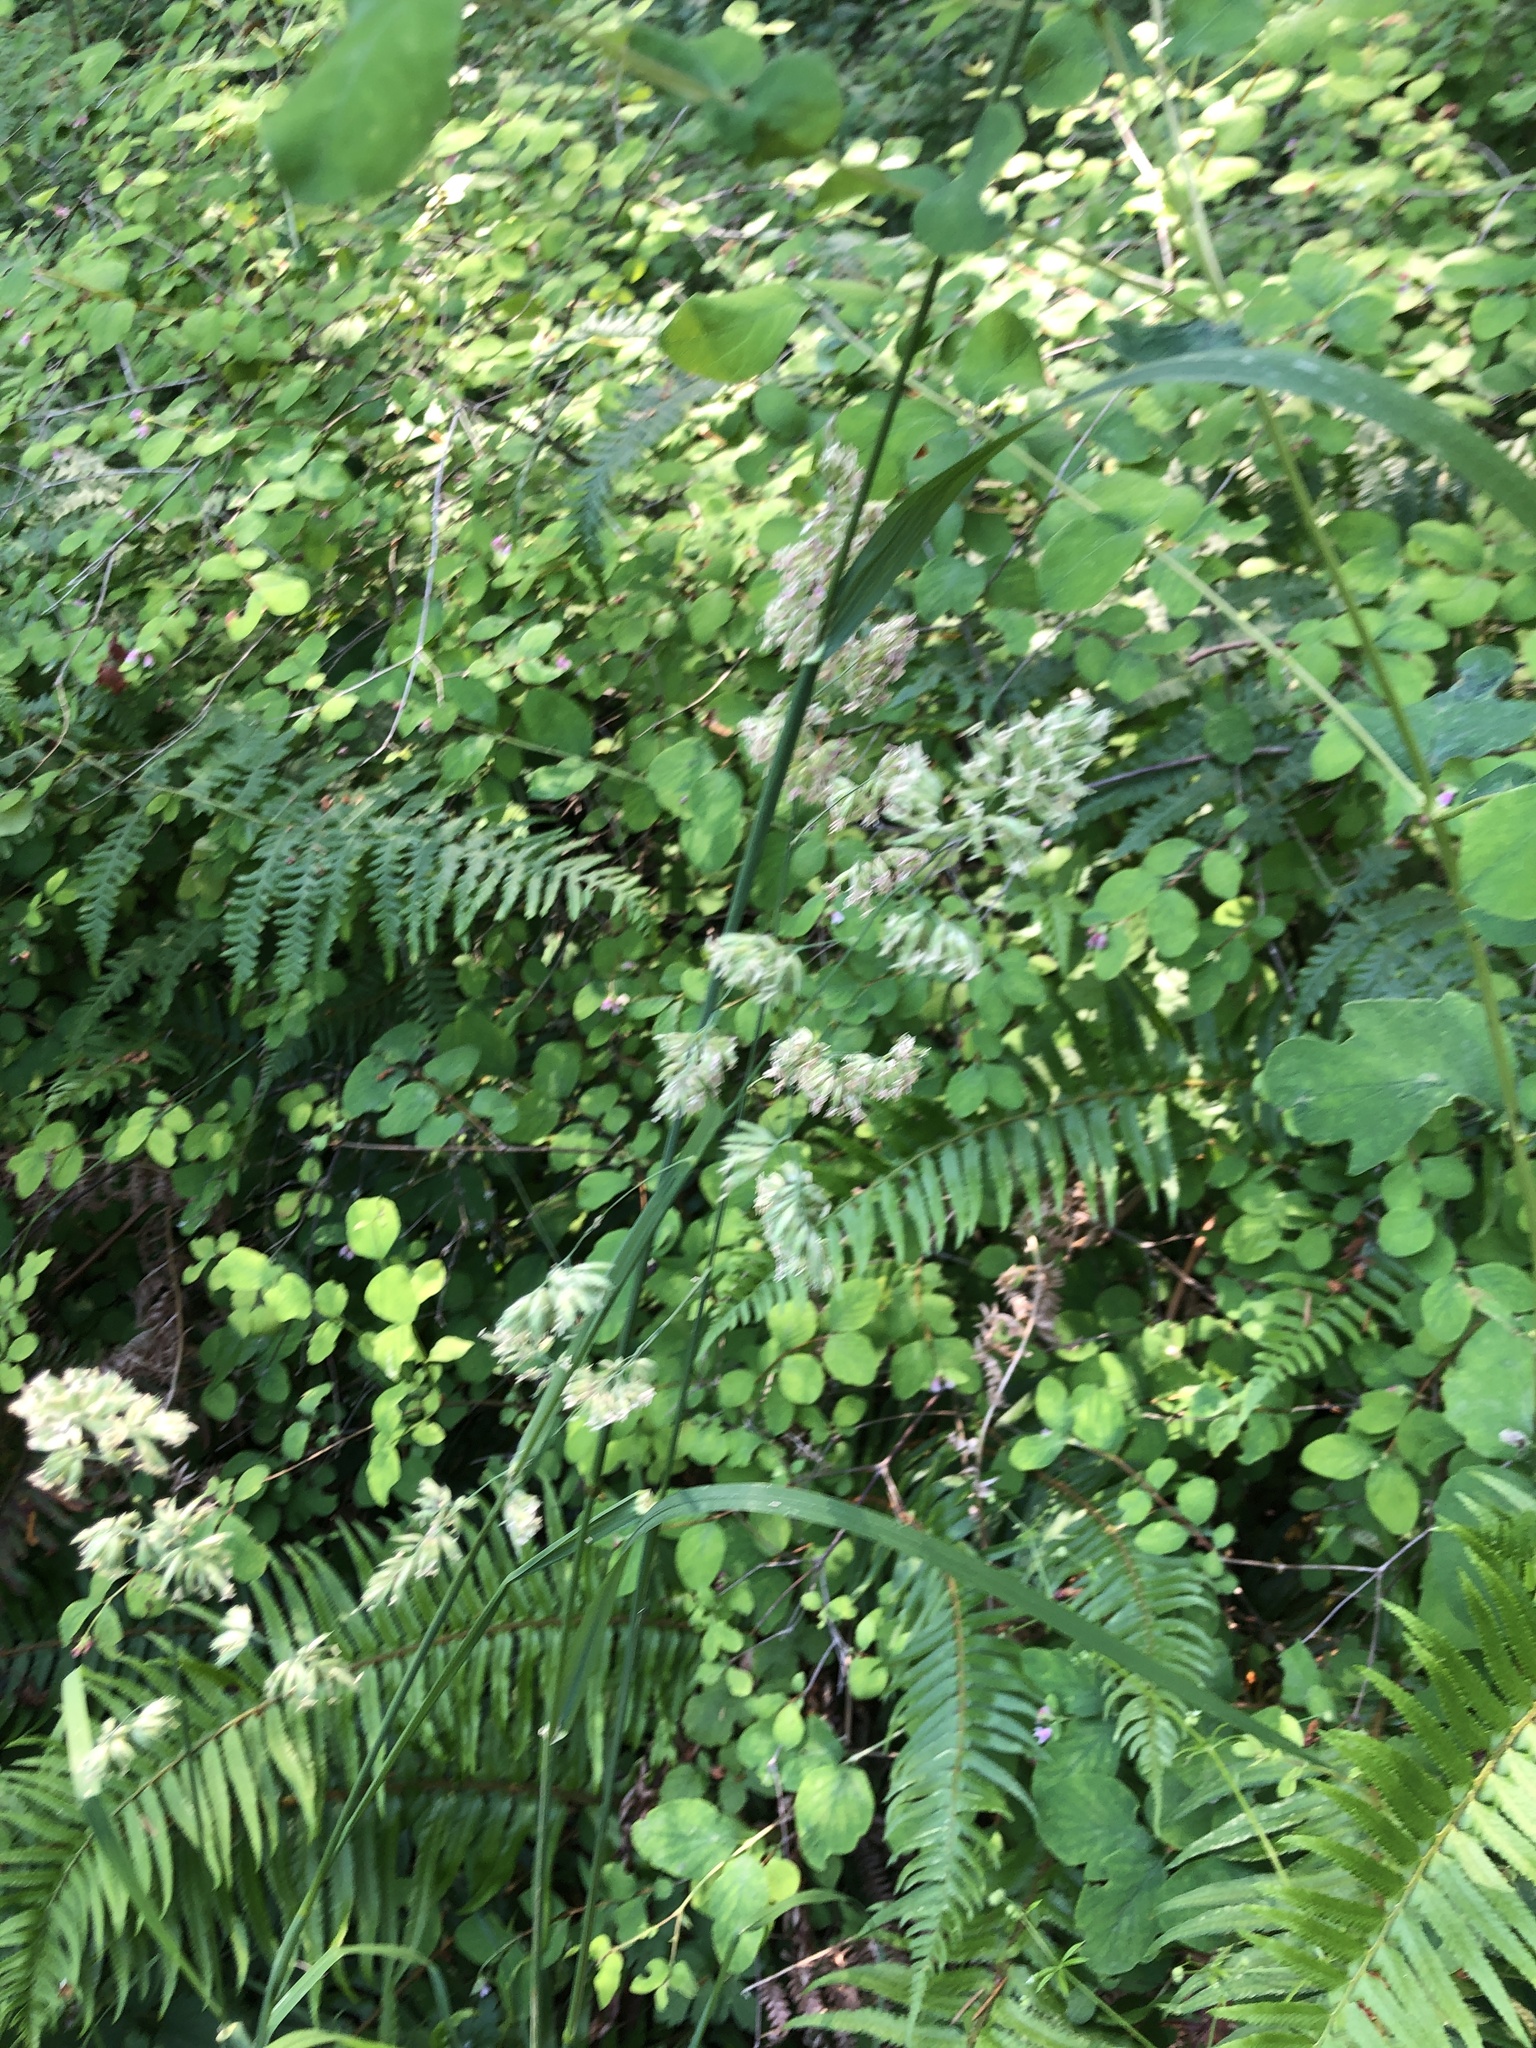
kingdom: Plantae
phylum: Tracheophyta
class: Liliopsida
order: Poales
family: Poaceae
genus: Dactylis
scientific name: Dactylis glomerata
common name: Orchardgrass
